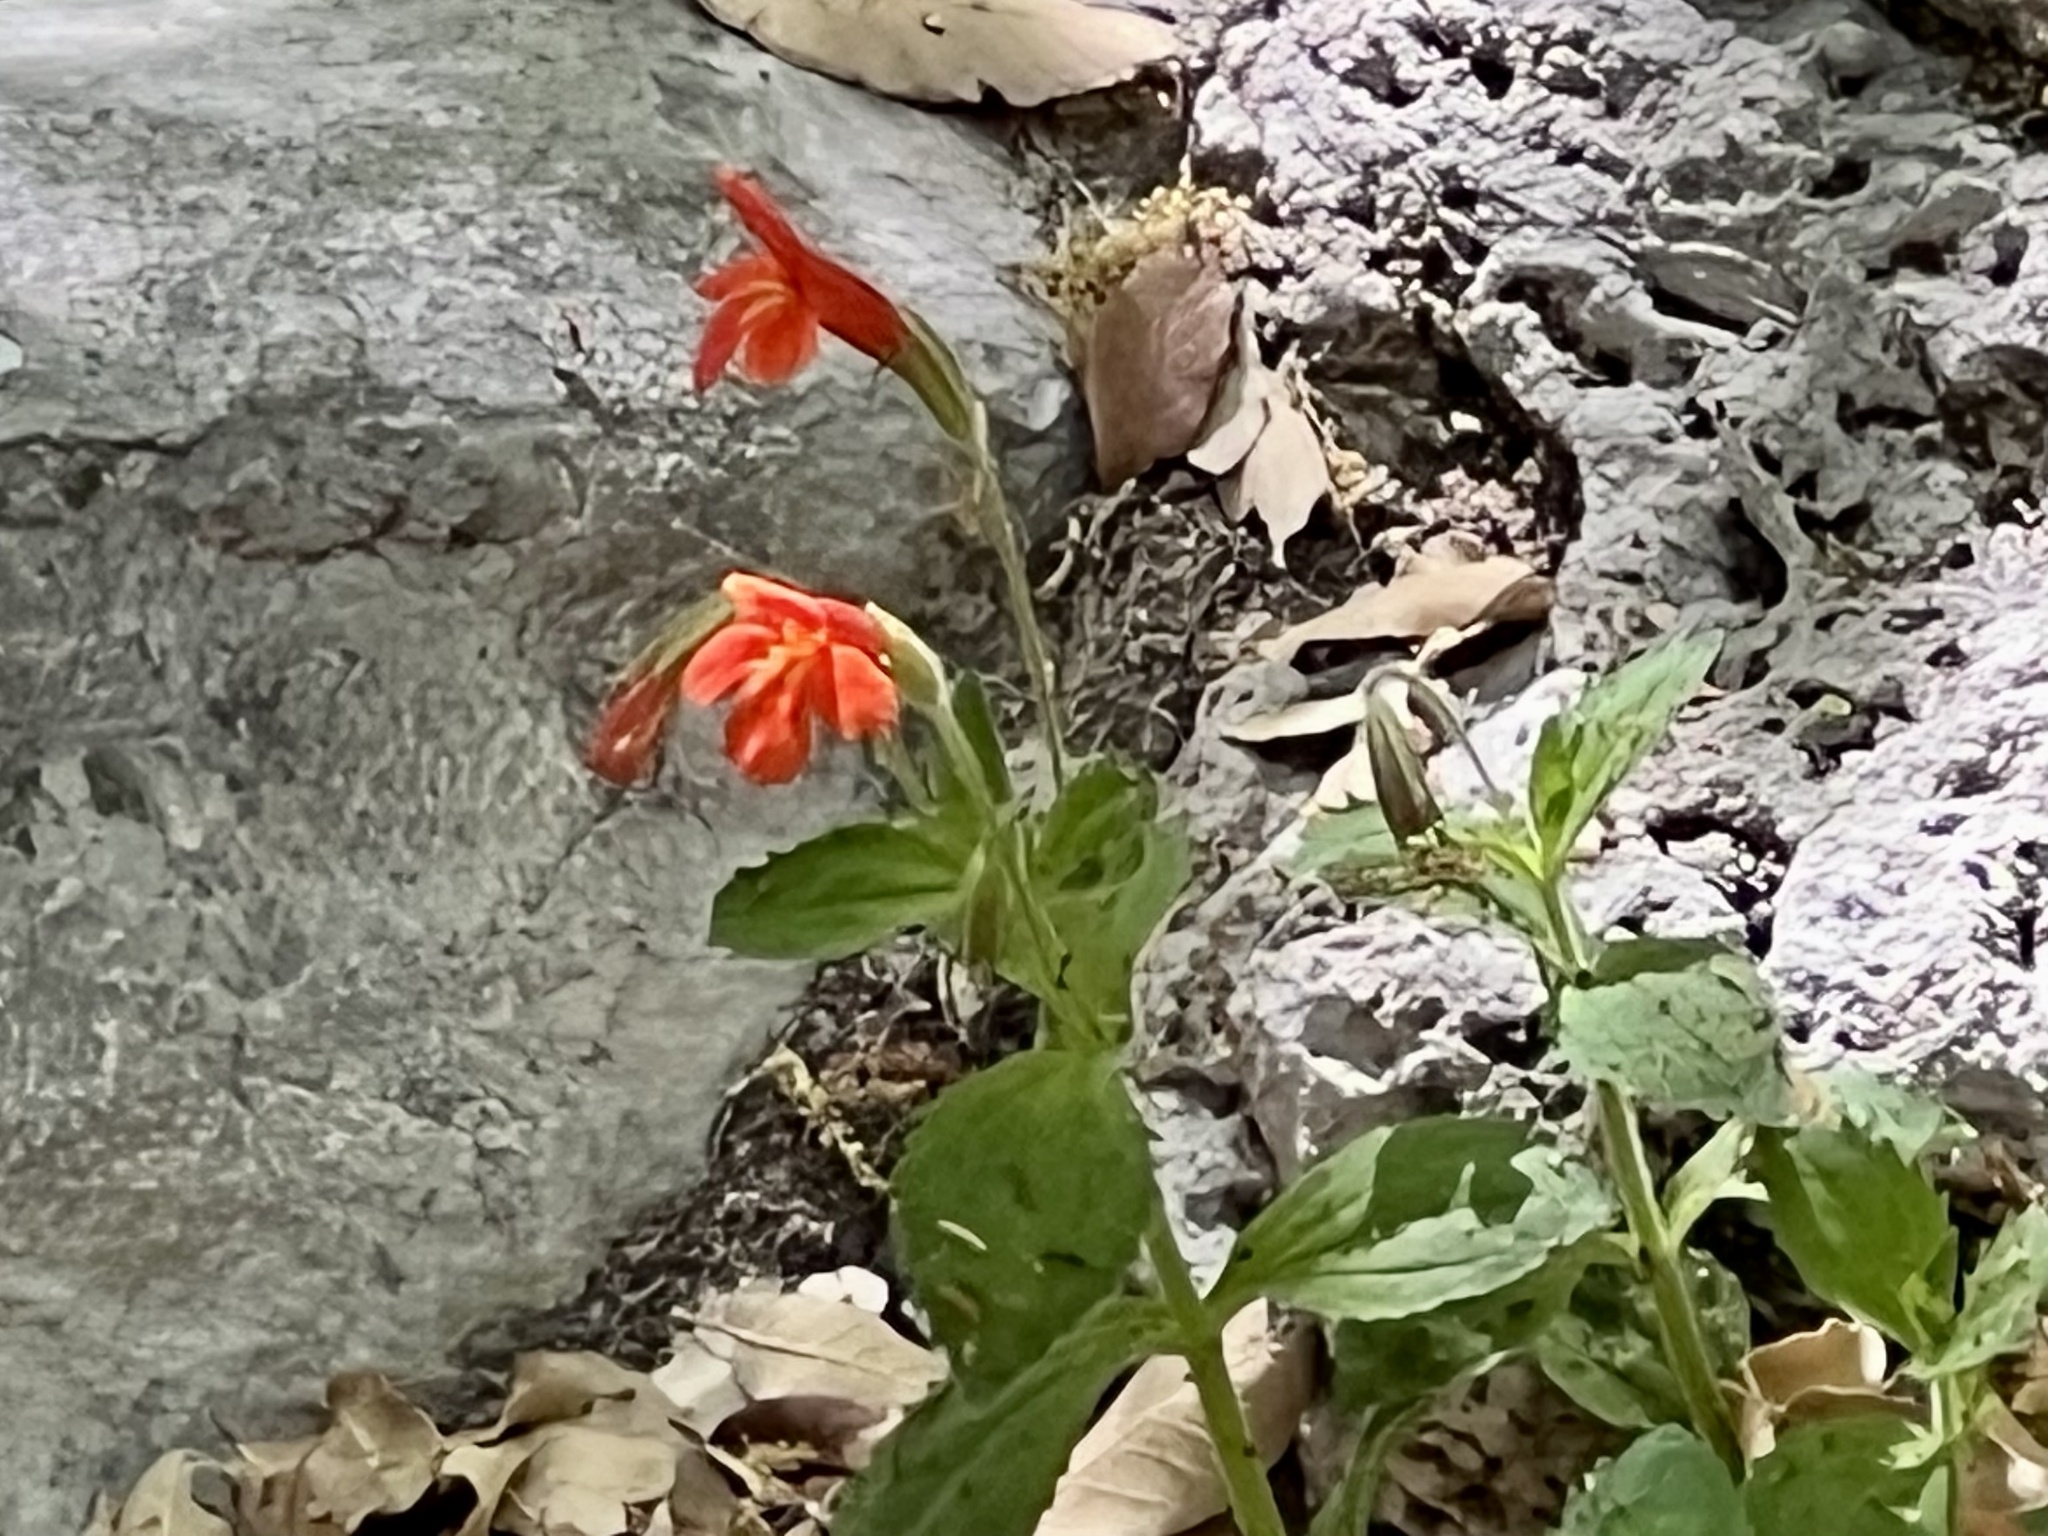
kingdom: Plantae
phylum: Tracheophyta
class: Magnoliopsida
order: Lamiales
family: Phrymaceae
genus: Erythranthe
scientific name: Erythranthe verbenacea
